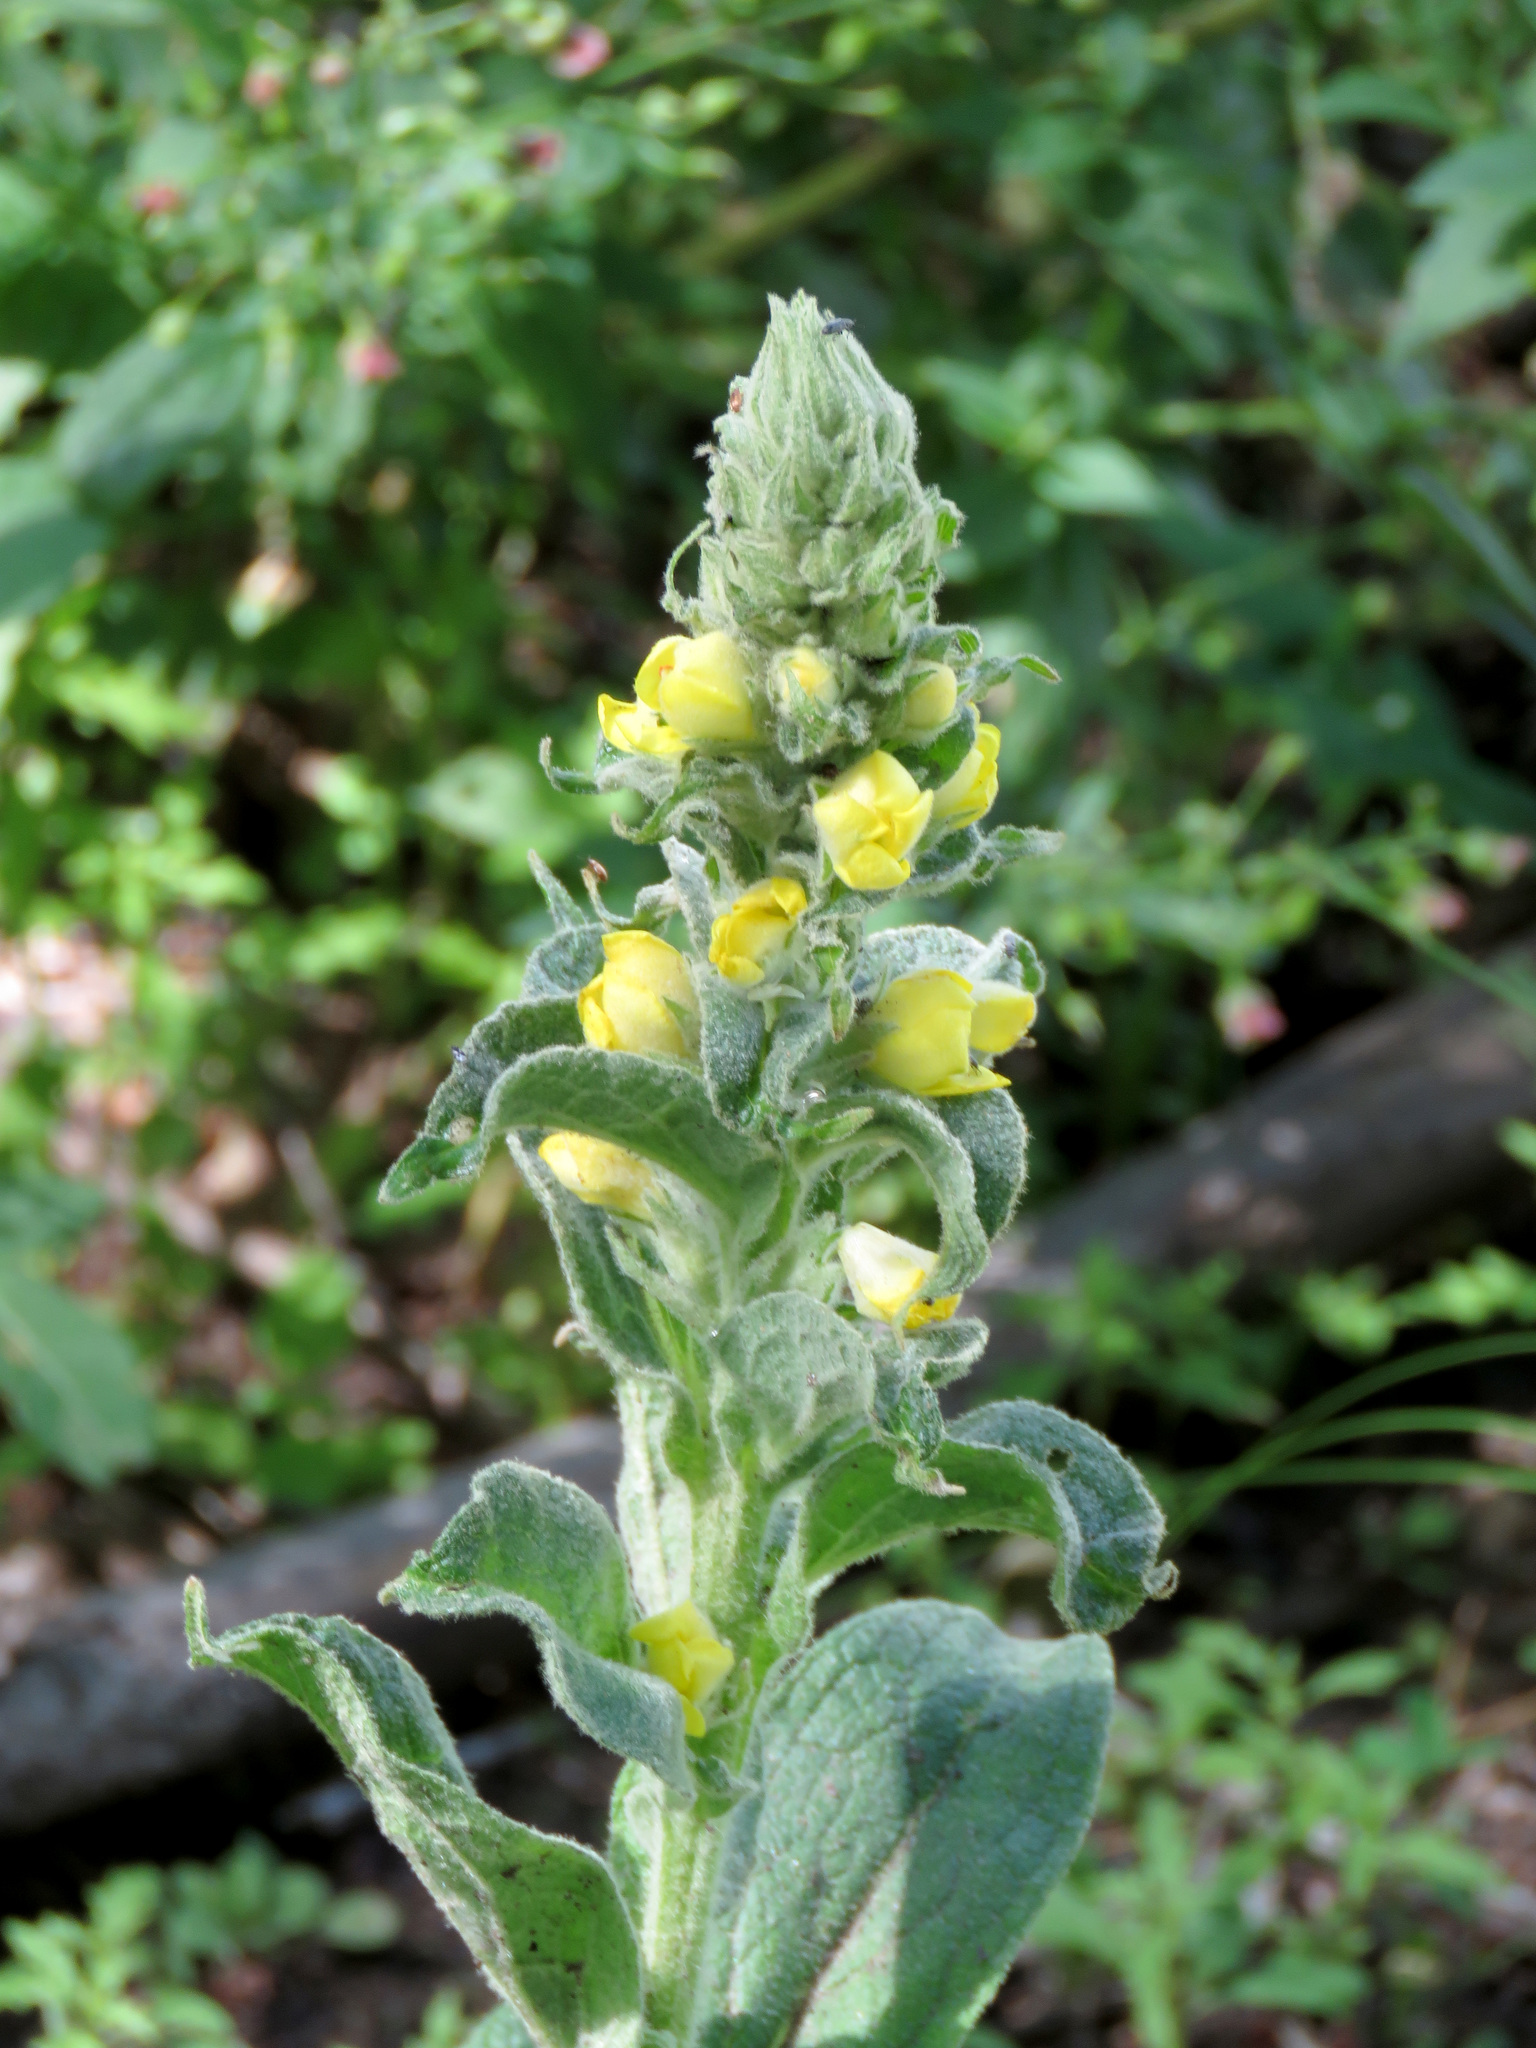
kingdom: Plantae
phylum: Tracheophyta
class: Magnoliopsida
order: Lamiales
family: Scrophulariaceae
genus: Verbascum
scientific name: Verbascum thapsus
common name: Common mullein
